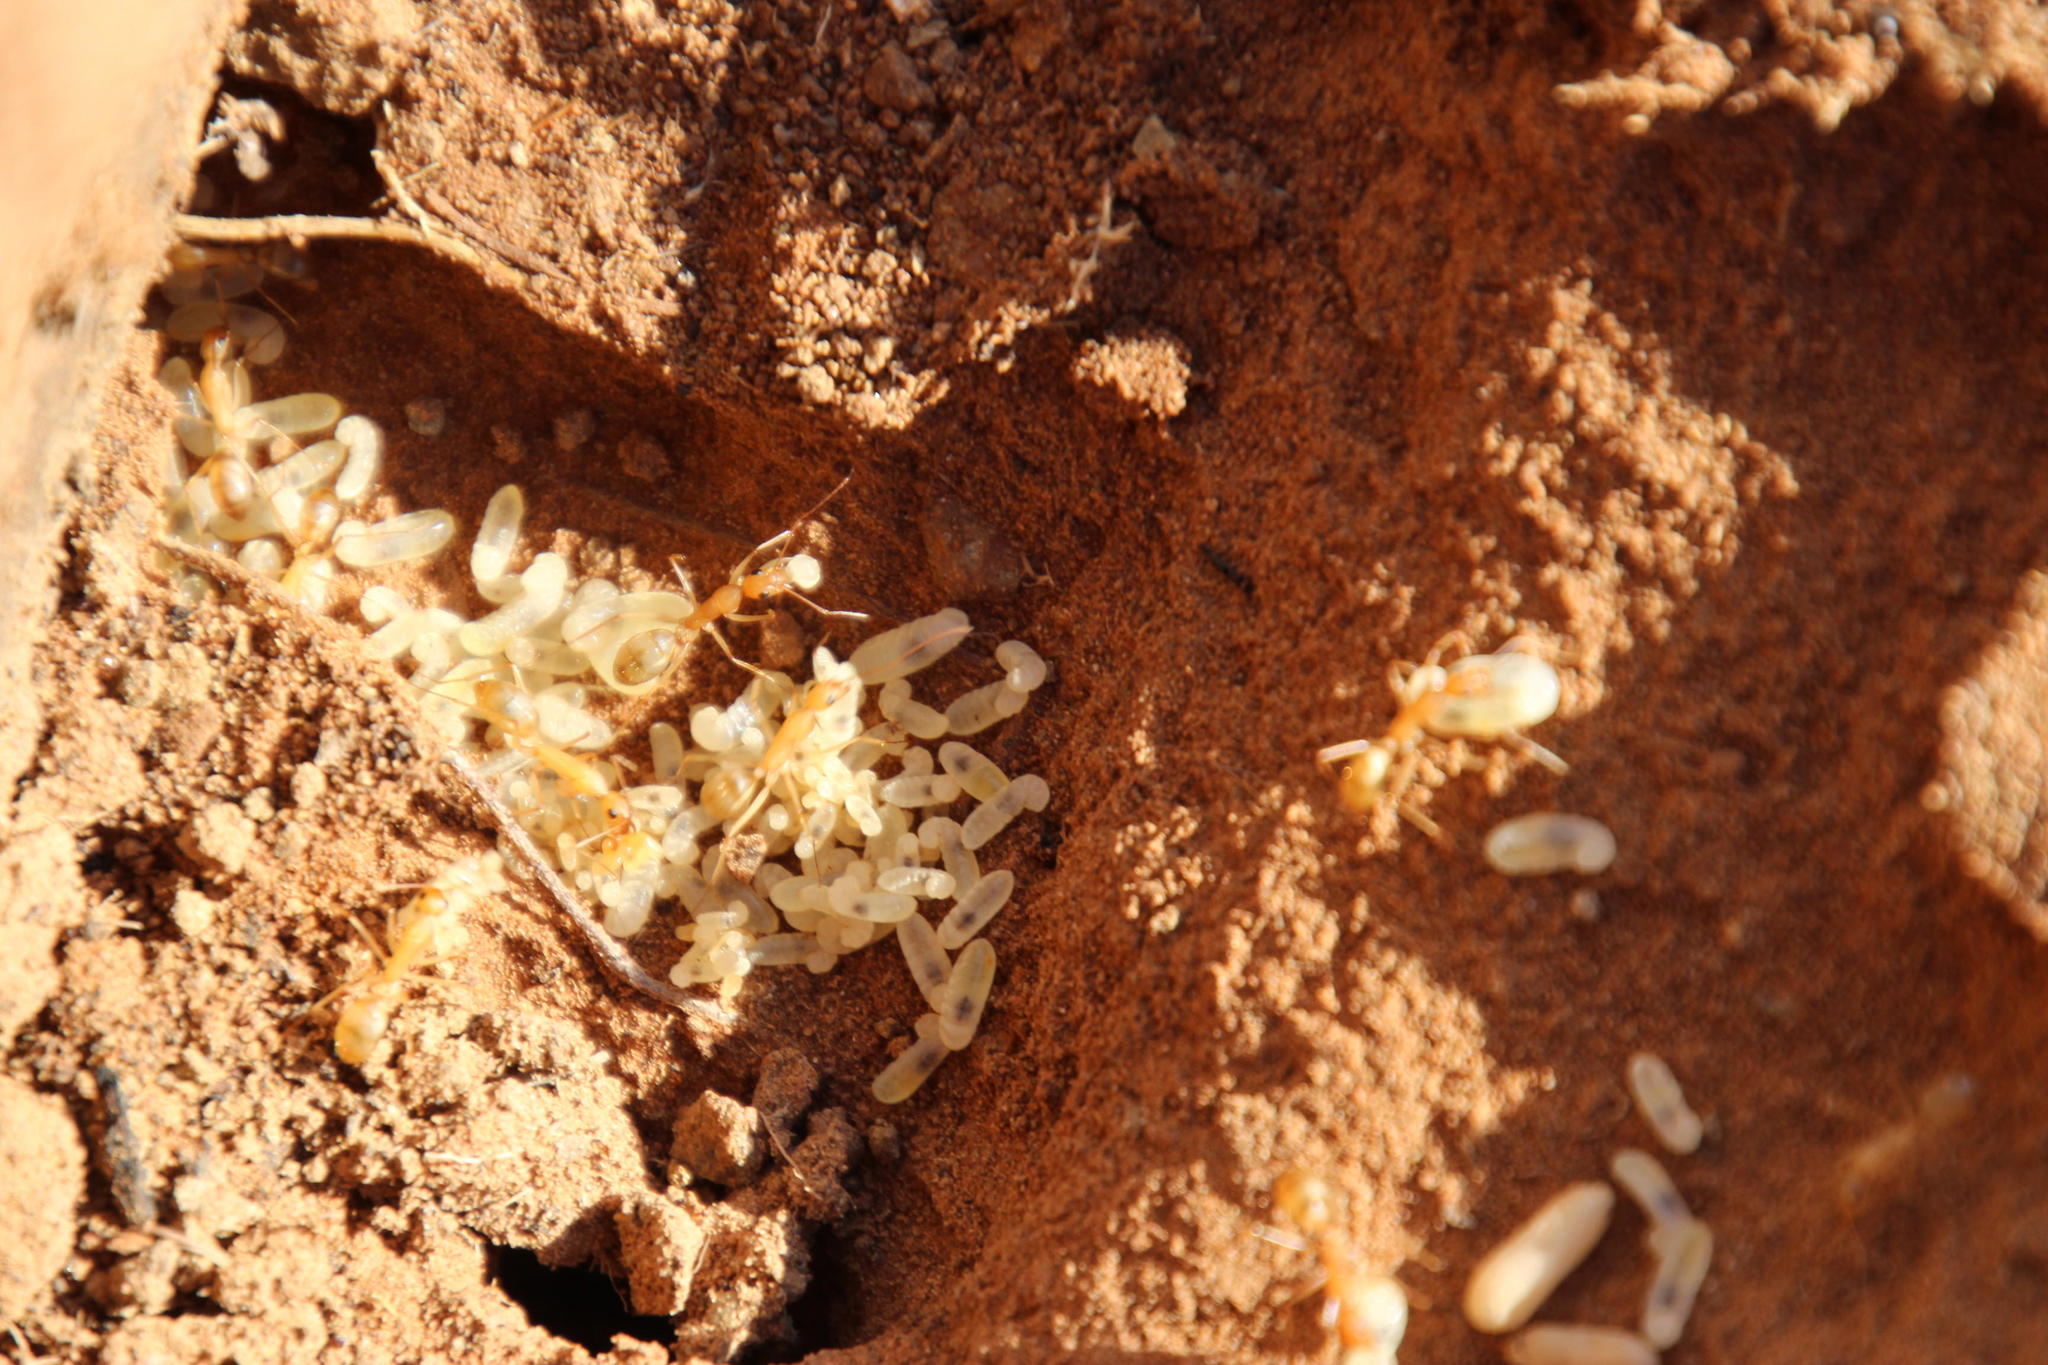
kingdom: Animalia
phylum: Arthropoda
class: Insecta
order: Hymenoptera
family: Formicidae
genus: Camponotus
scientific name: Camponotus importunus
